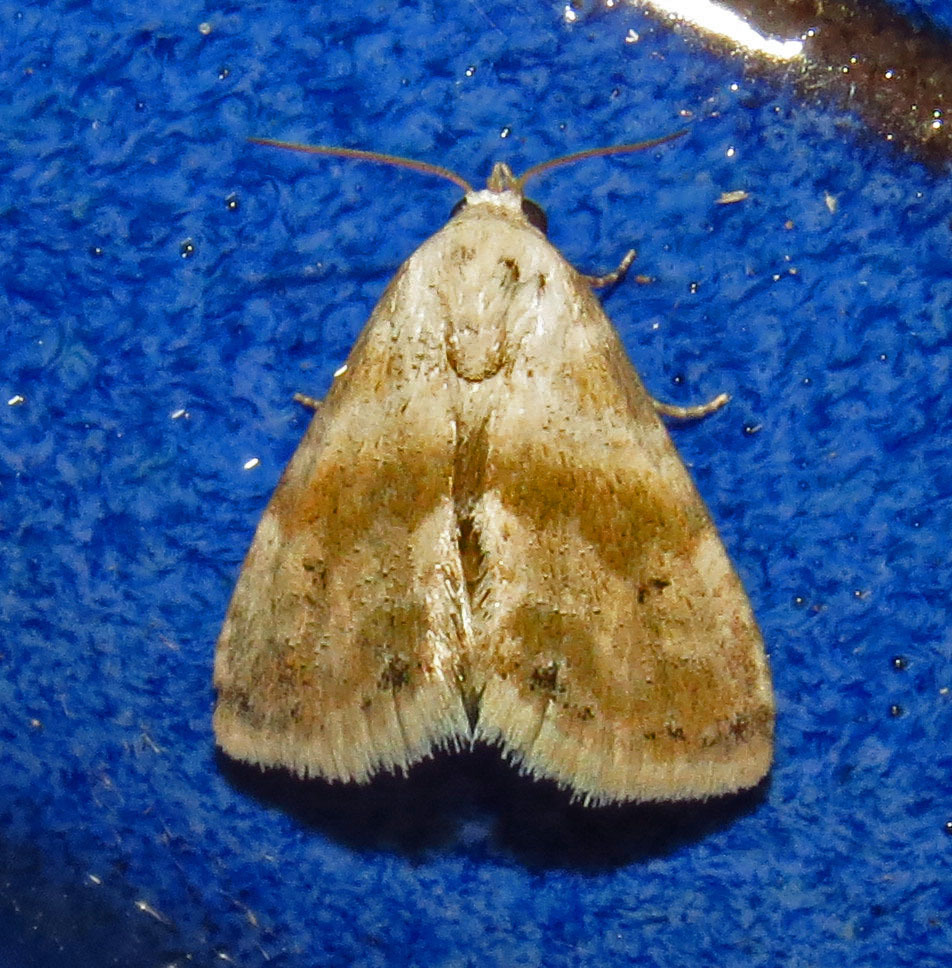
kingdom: Animalia
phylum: Arthropoda
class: Insecta
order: Lepidoptera
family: Noctuidae
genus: Eublemma
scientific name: Eublemma minima
